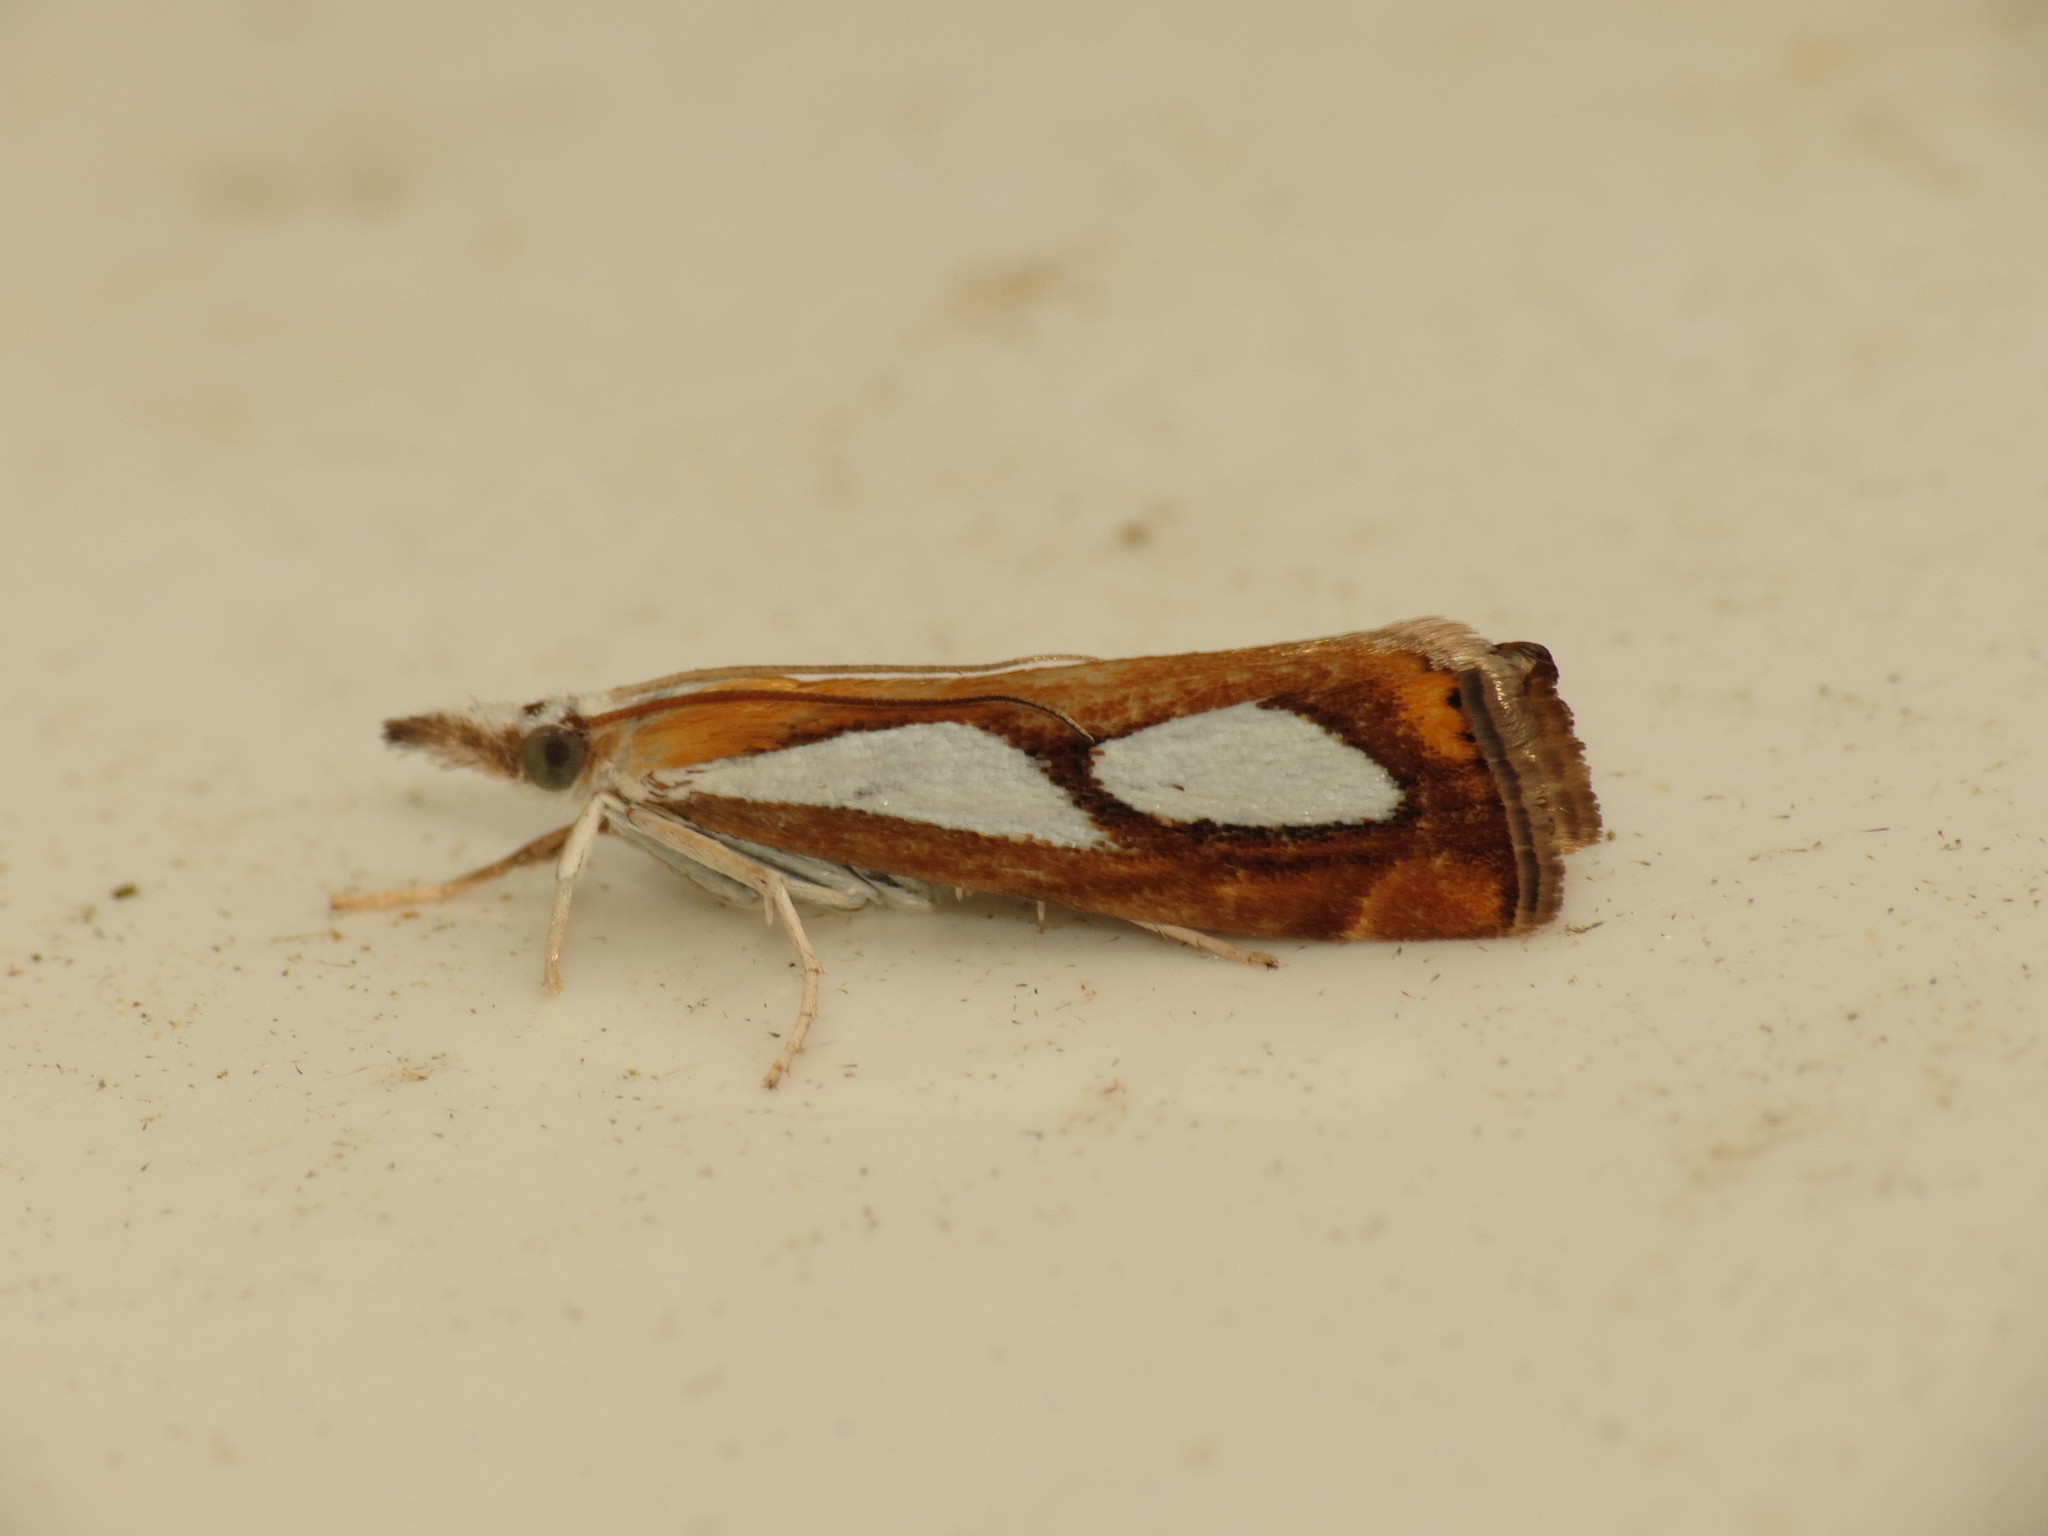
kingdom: Animalia
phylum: Arthropoda
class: Insecta
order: Lepidoptera
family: Crambidae
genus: Catoptria
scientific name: Catoptria pinella
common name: Pearl grass-veneer
